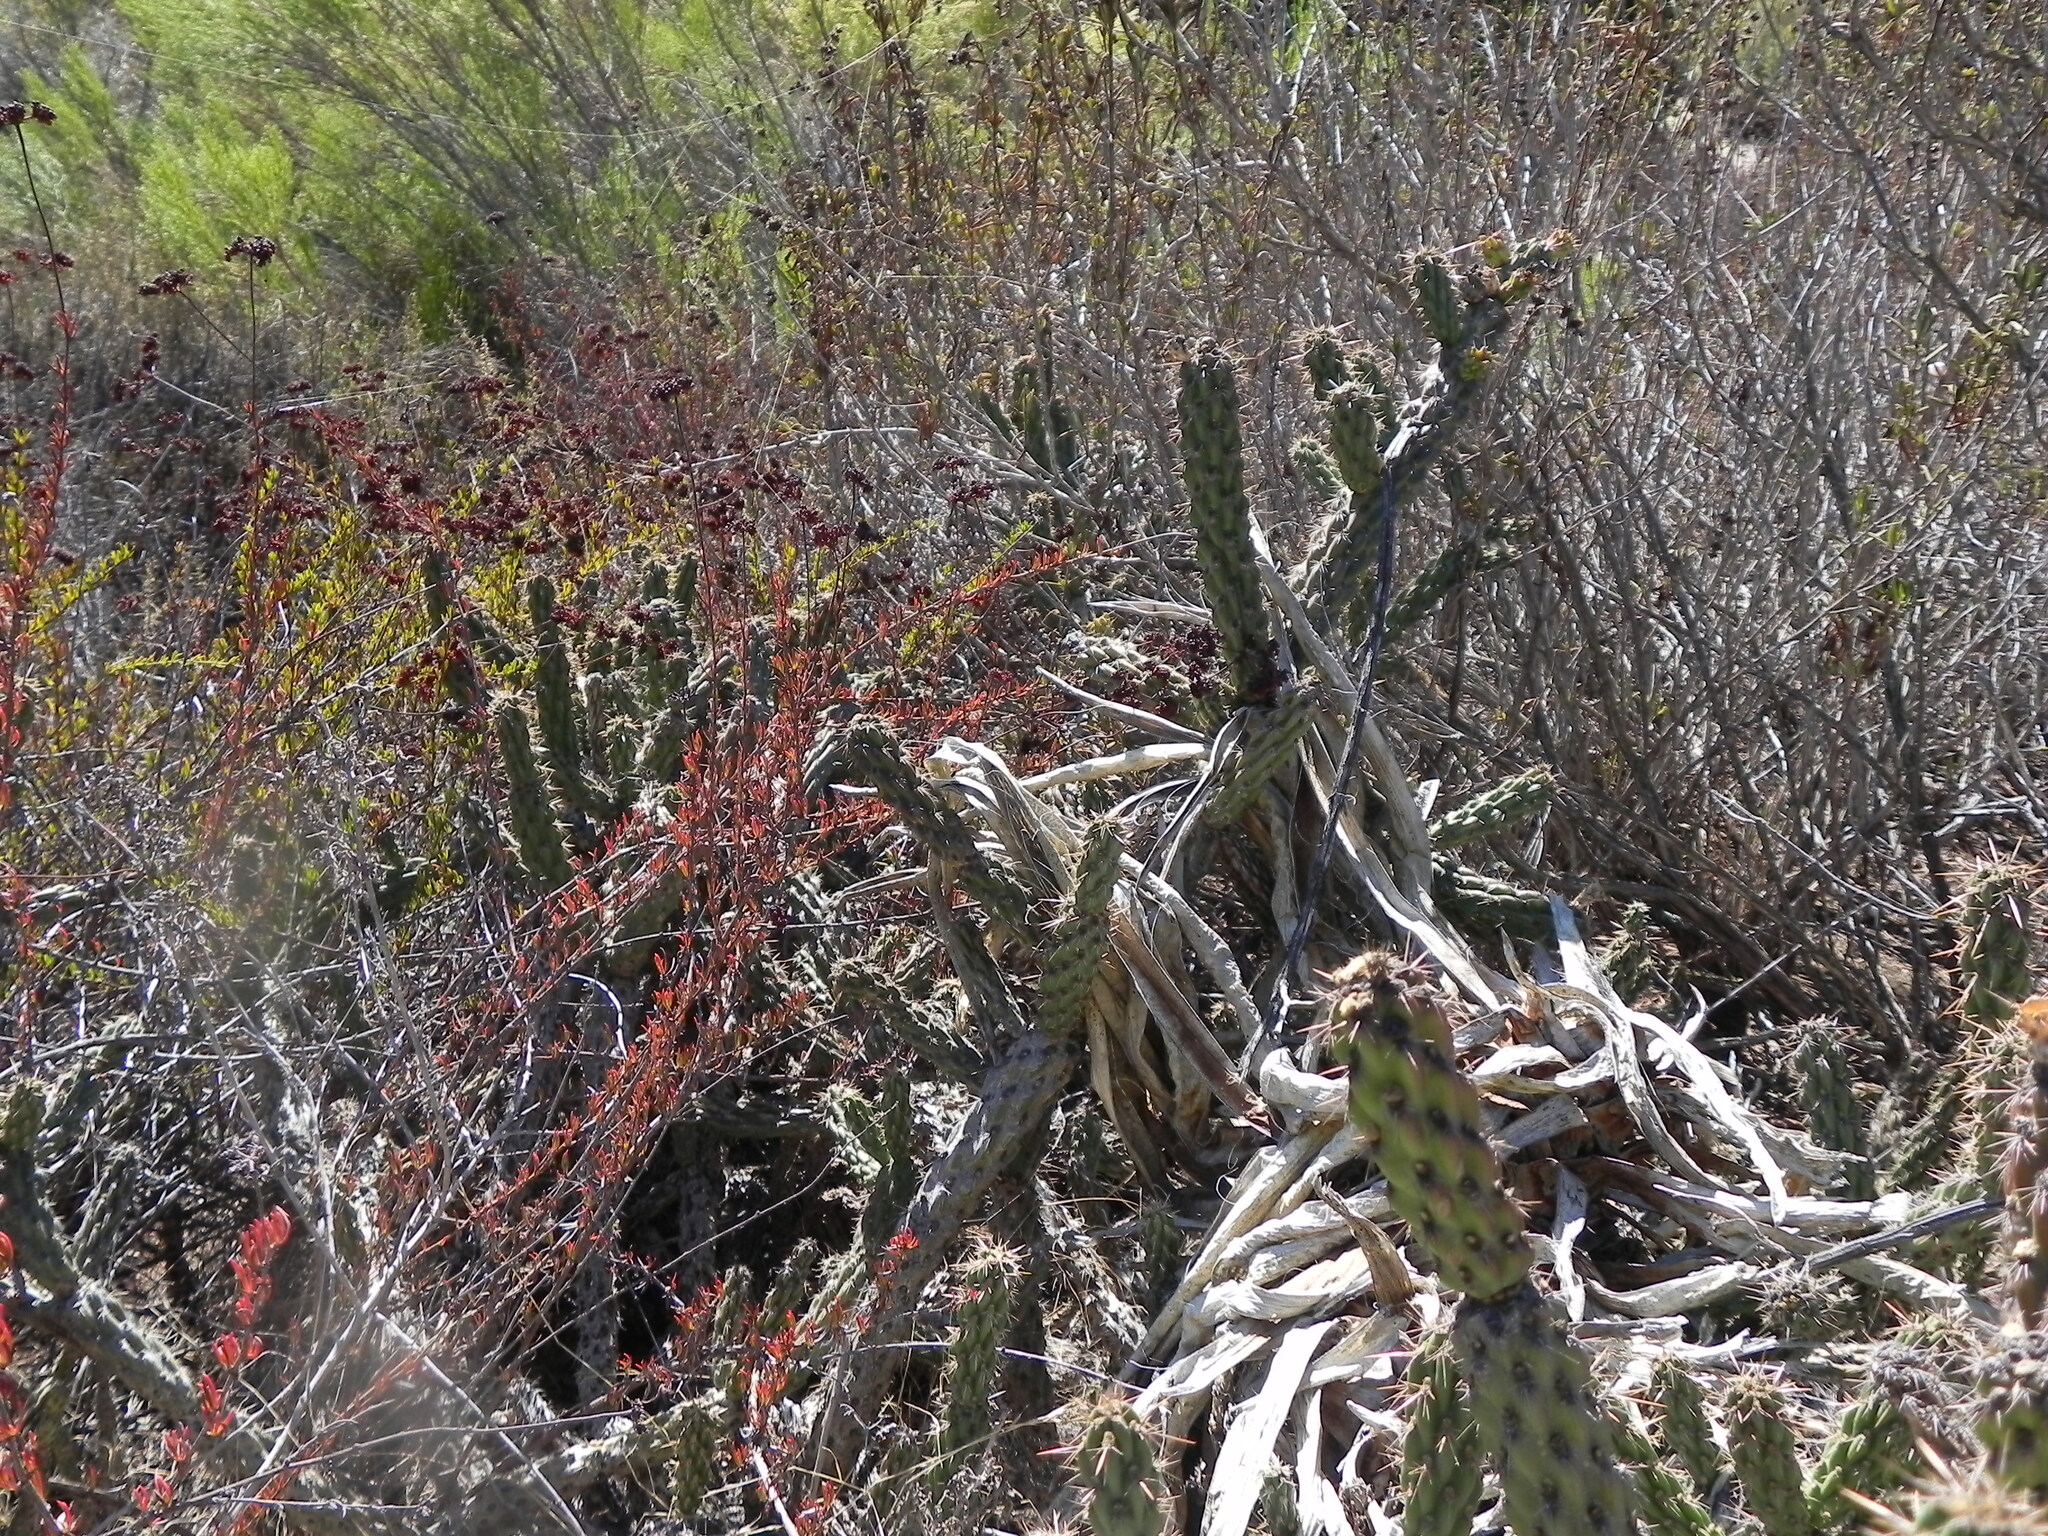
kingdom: Plantae
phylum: Tracheophyta
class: Magnoliopsida
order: Caryophyllales
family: Cactaceae
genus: Cylindropuntia
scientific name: Cylindropuntia californica
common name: Snake cholla
